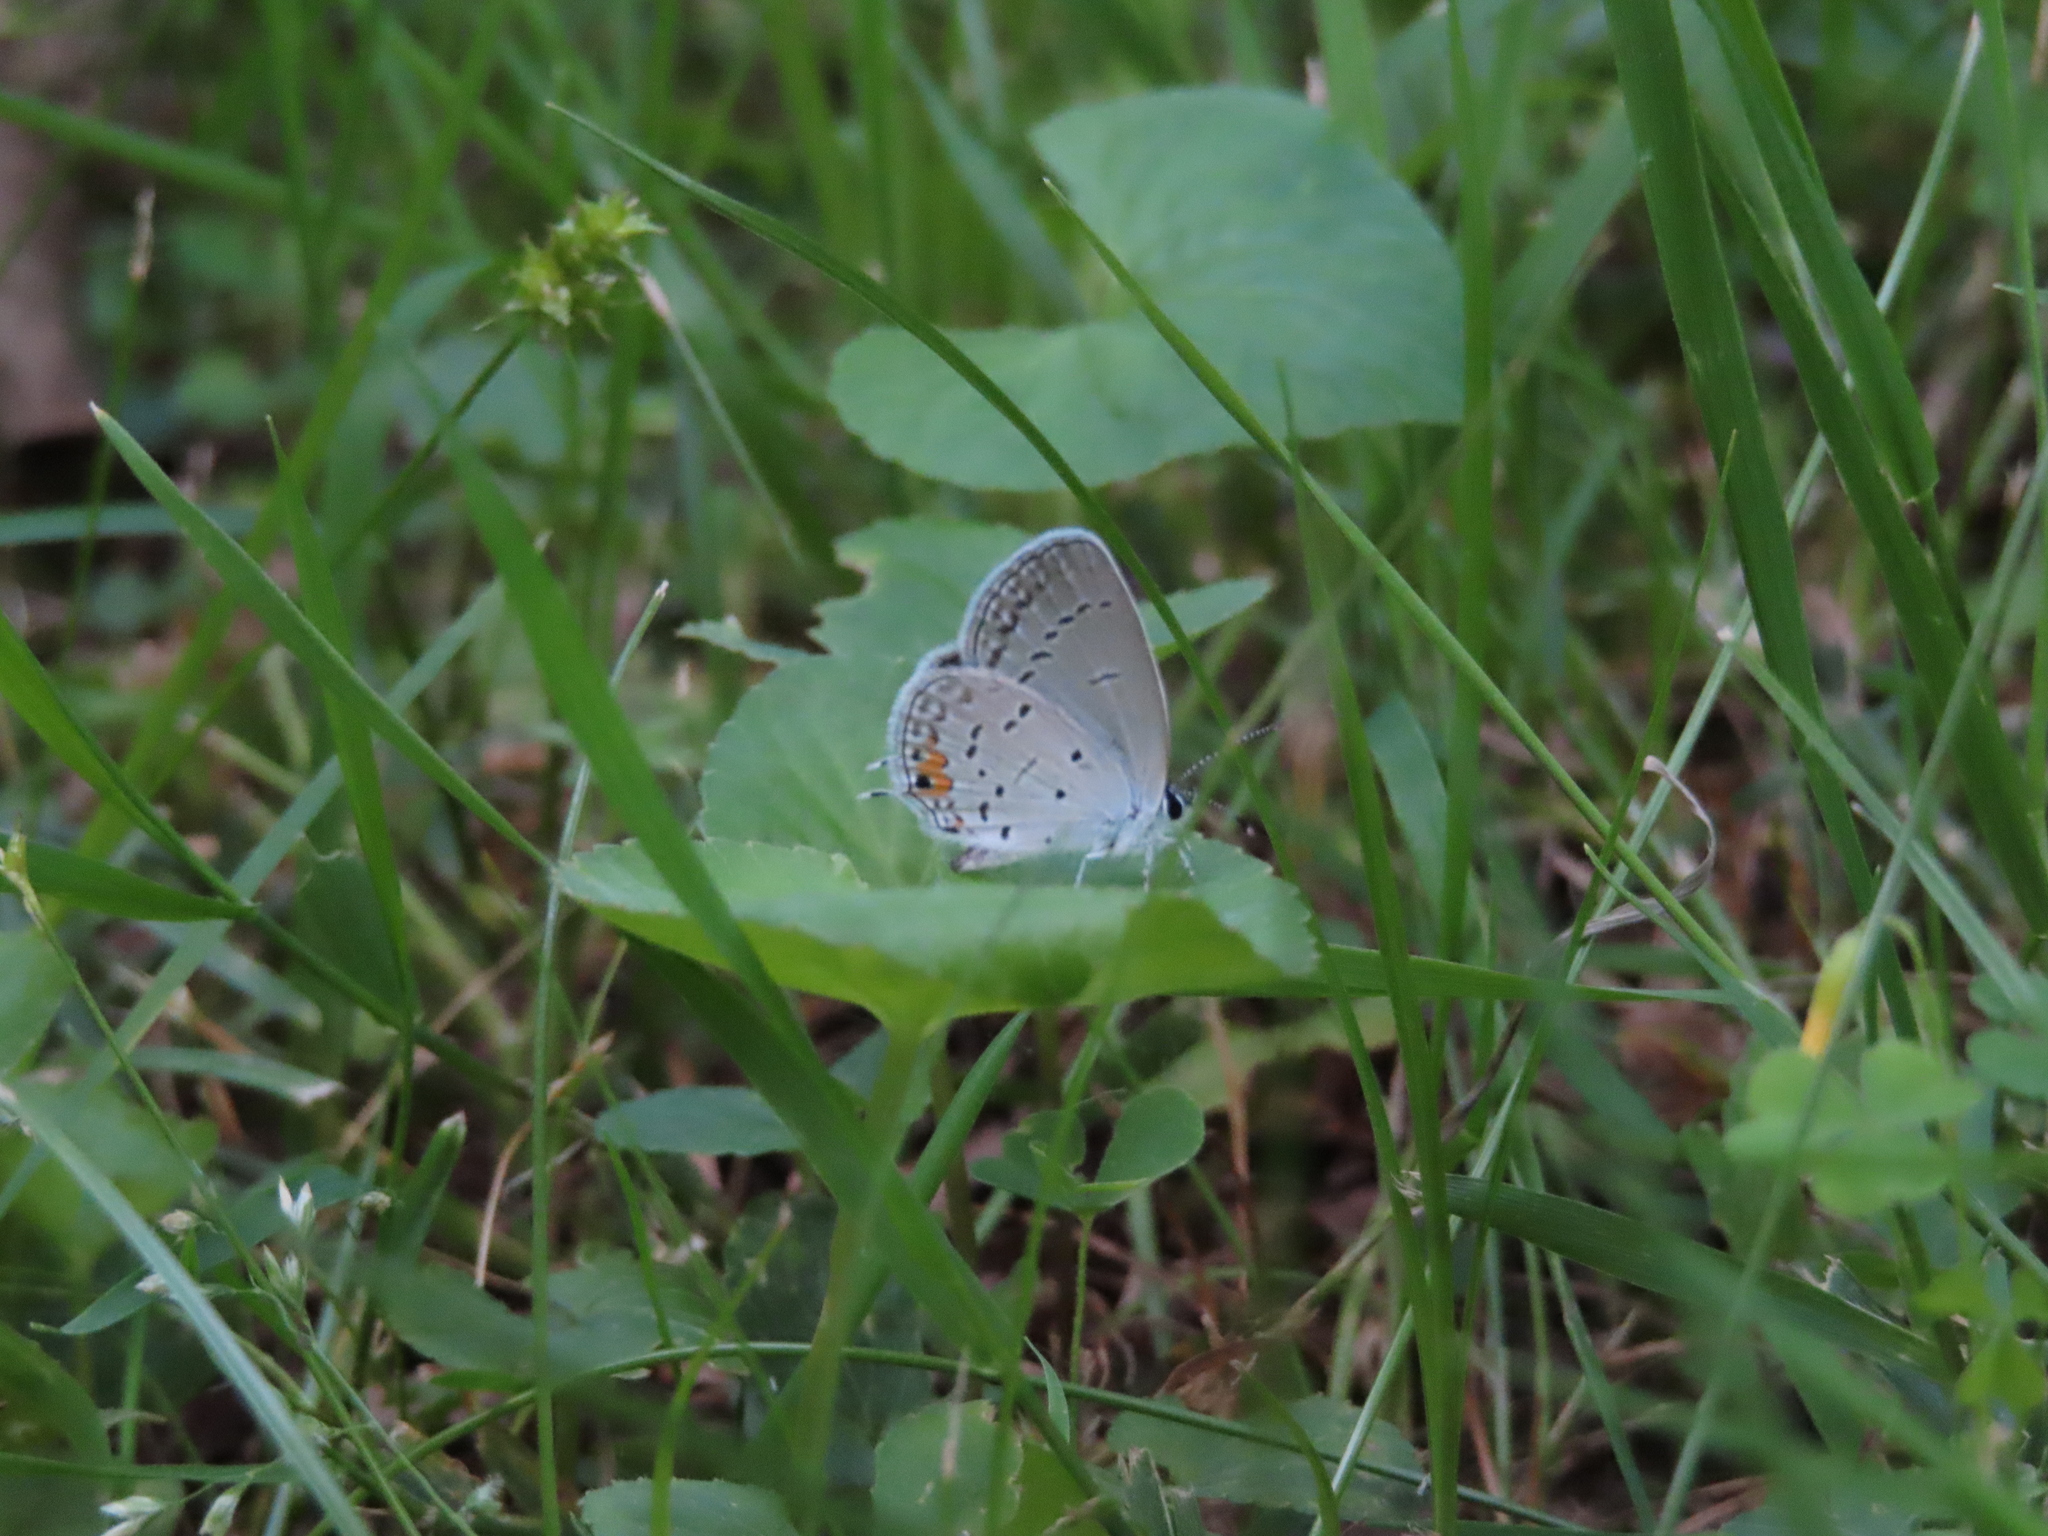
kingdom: Animalia
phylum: Arthropoda
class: Insecta
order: Lepidoptera
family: Lycaenidae
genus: Elkalyce
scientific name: Elkalyce comyntas
